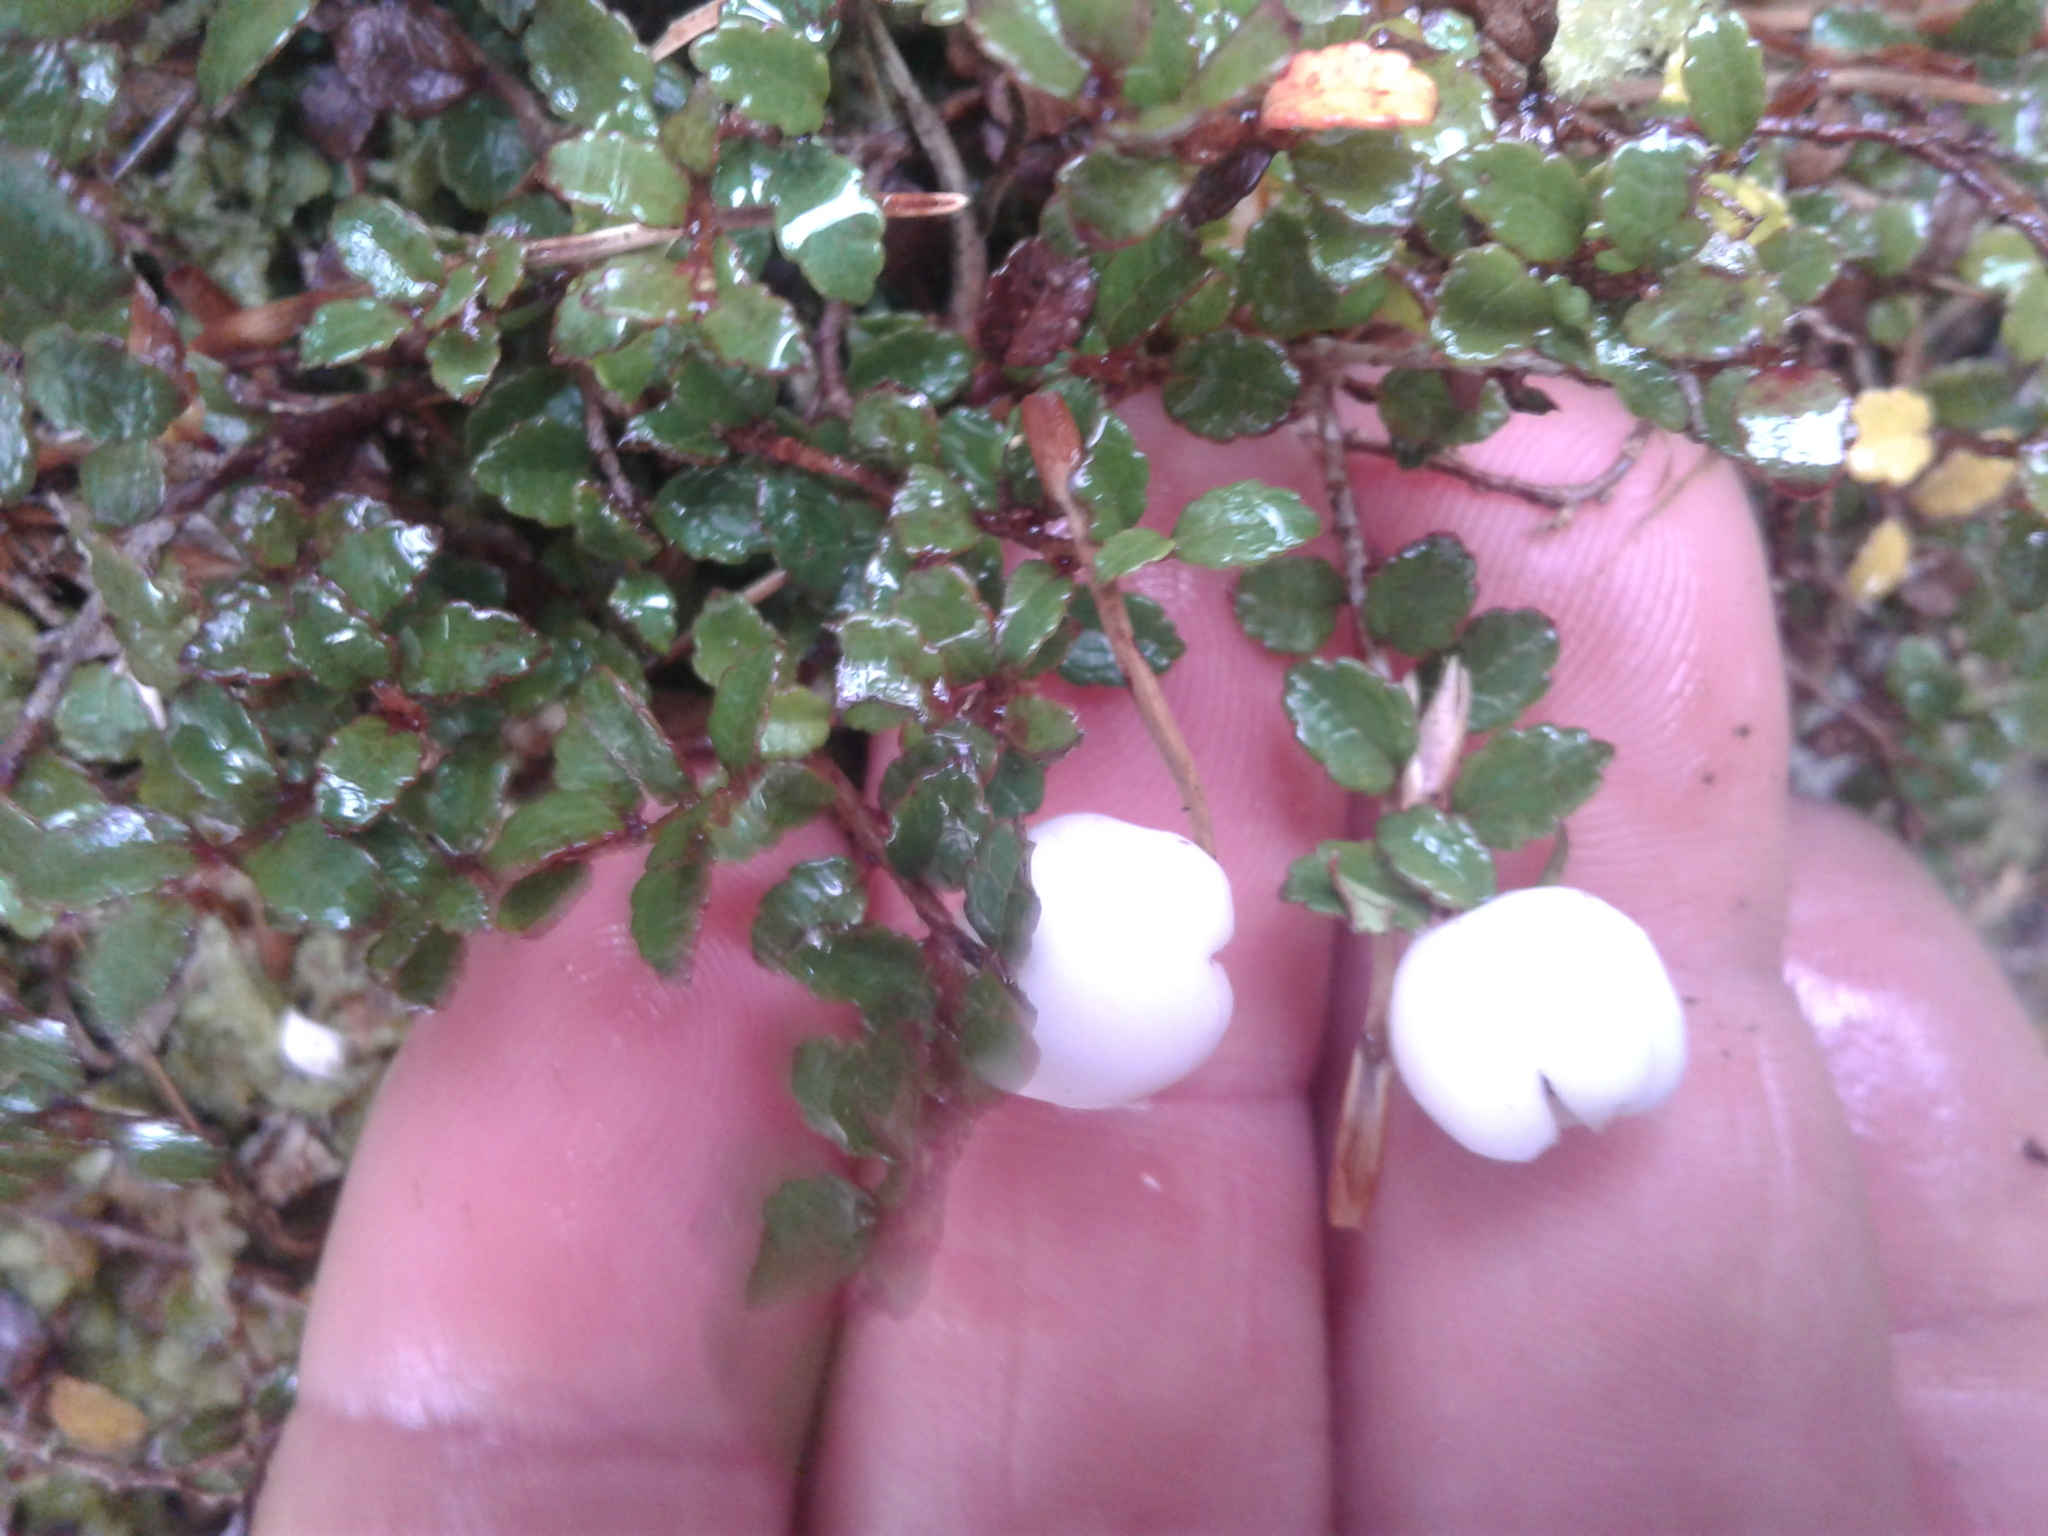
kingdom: Plantae
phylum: Tracheophyta
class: Magnoliopsida
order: Ericales
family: Ericaceae
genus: Gaultheria
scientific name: Gaultheria depressa
